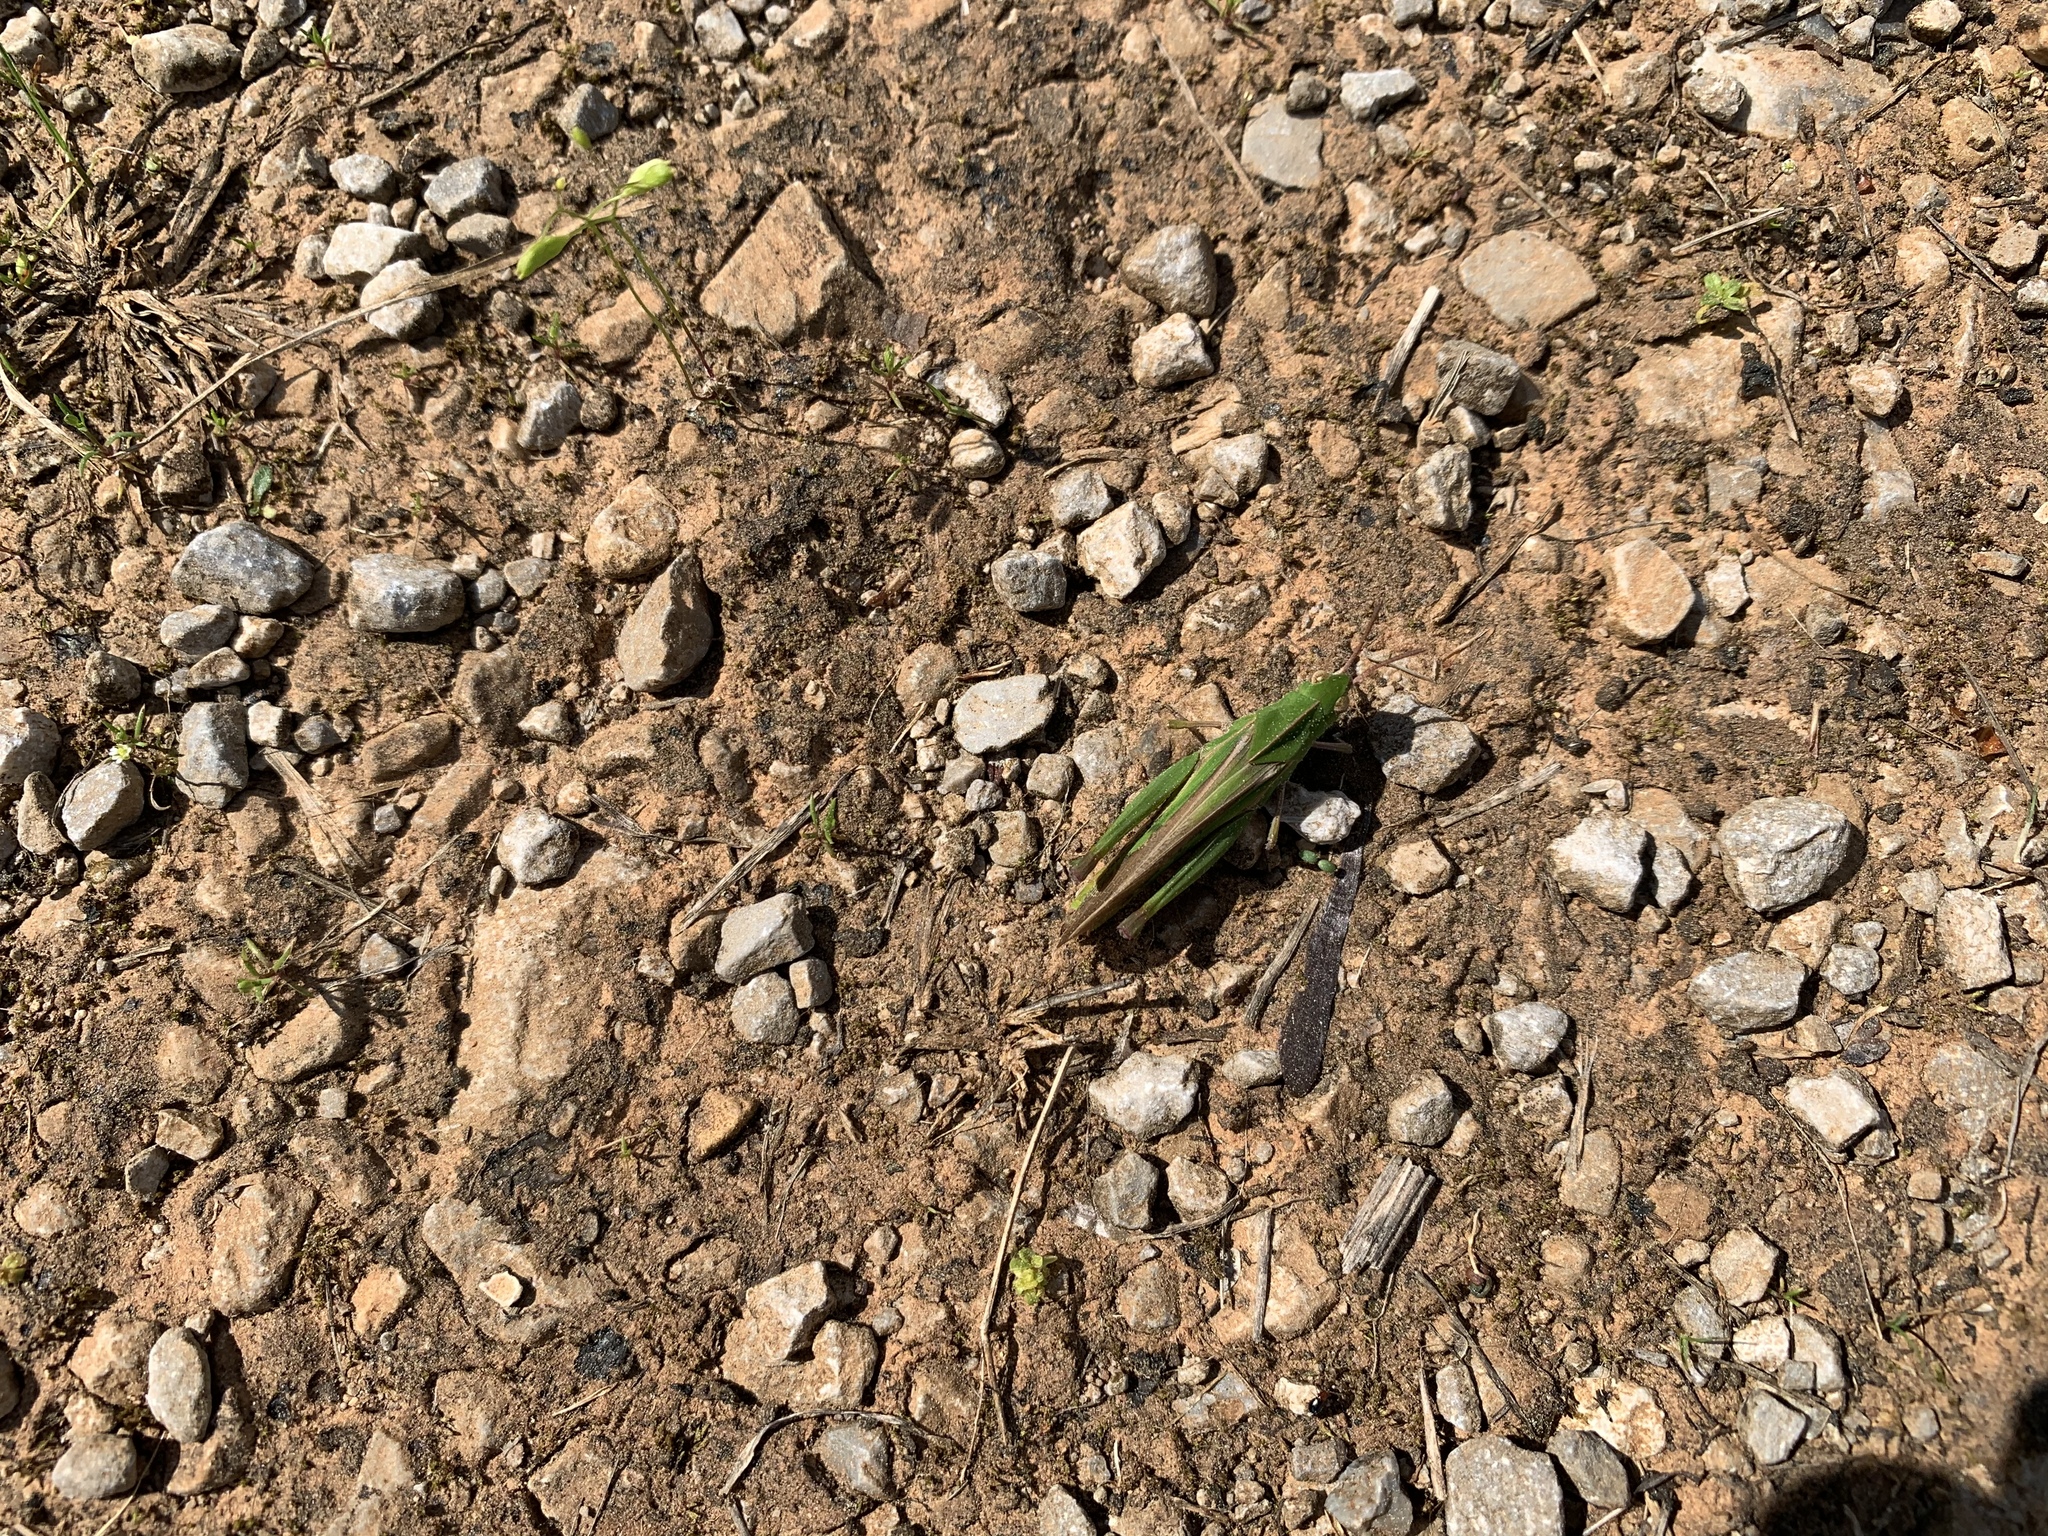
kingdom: Animalia
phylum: Arthropoda
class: Insecta
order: Orthoptera
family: Acrididae
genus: Chortophaga
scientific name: Chortophaga viridifasciata
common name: Green-striped grasshopper
